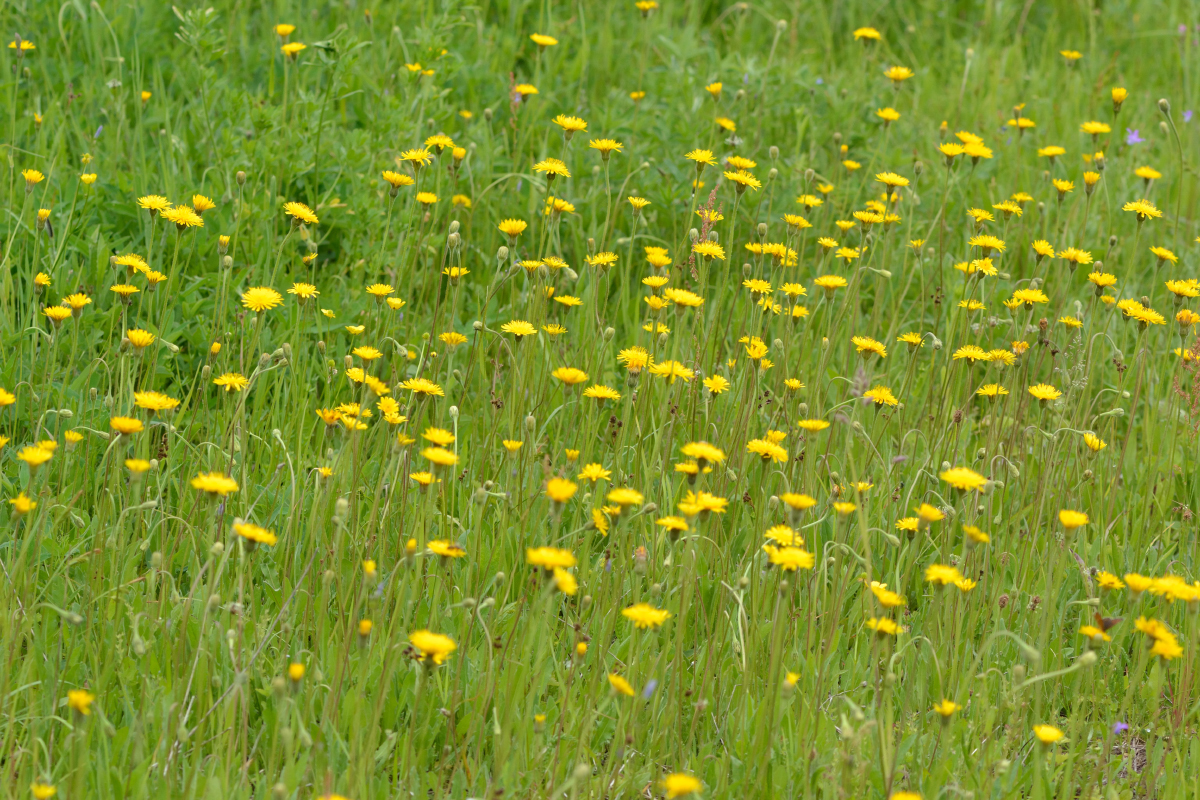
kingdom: Plantae
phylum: Tracheophyta
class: Magnoliopsida
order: Asterales
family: Asteraceae
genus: Leontodon
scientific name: Leontodon hispidus
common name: Rough hawkbit
